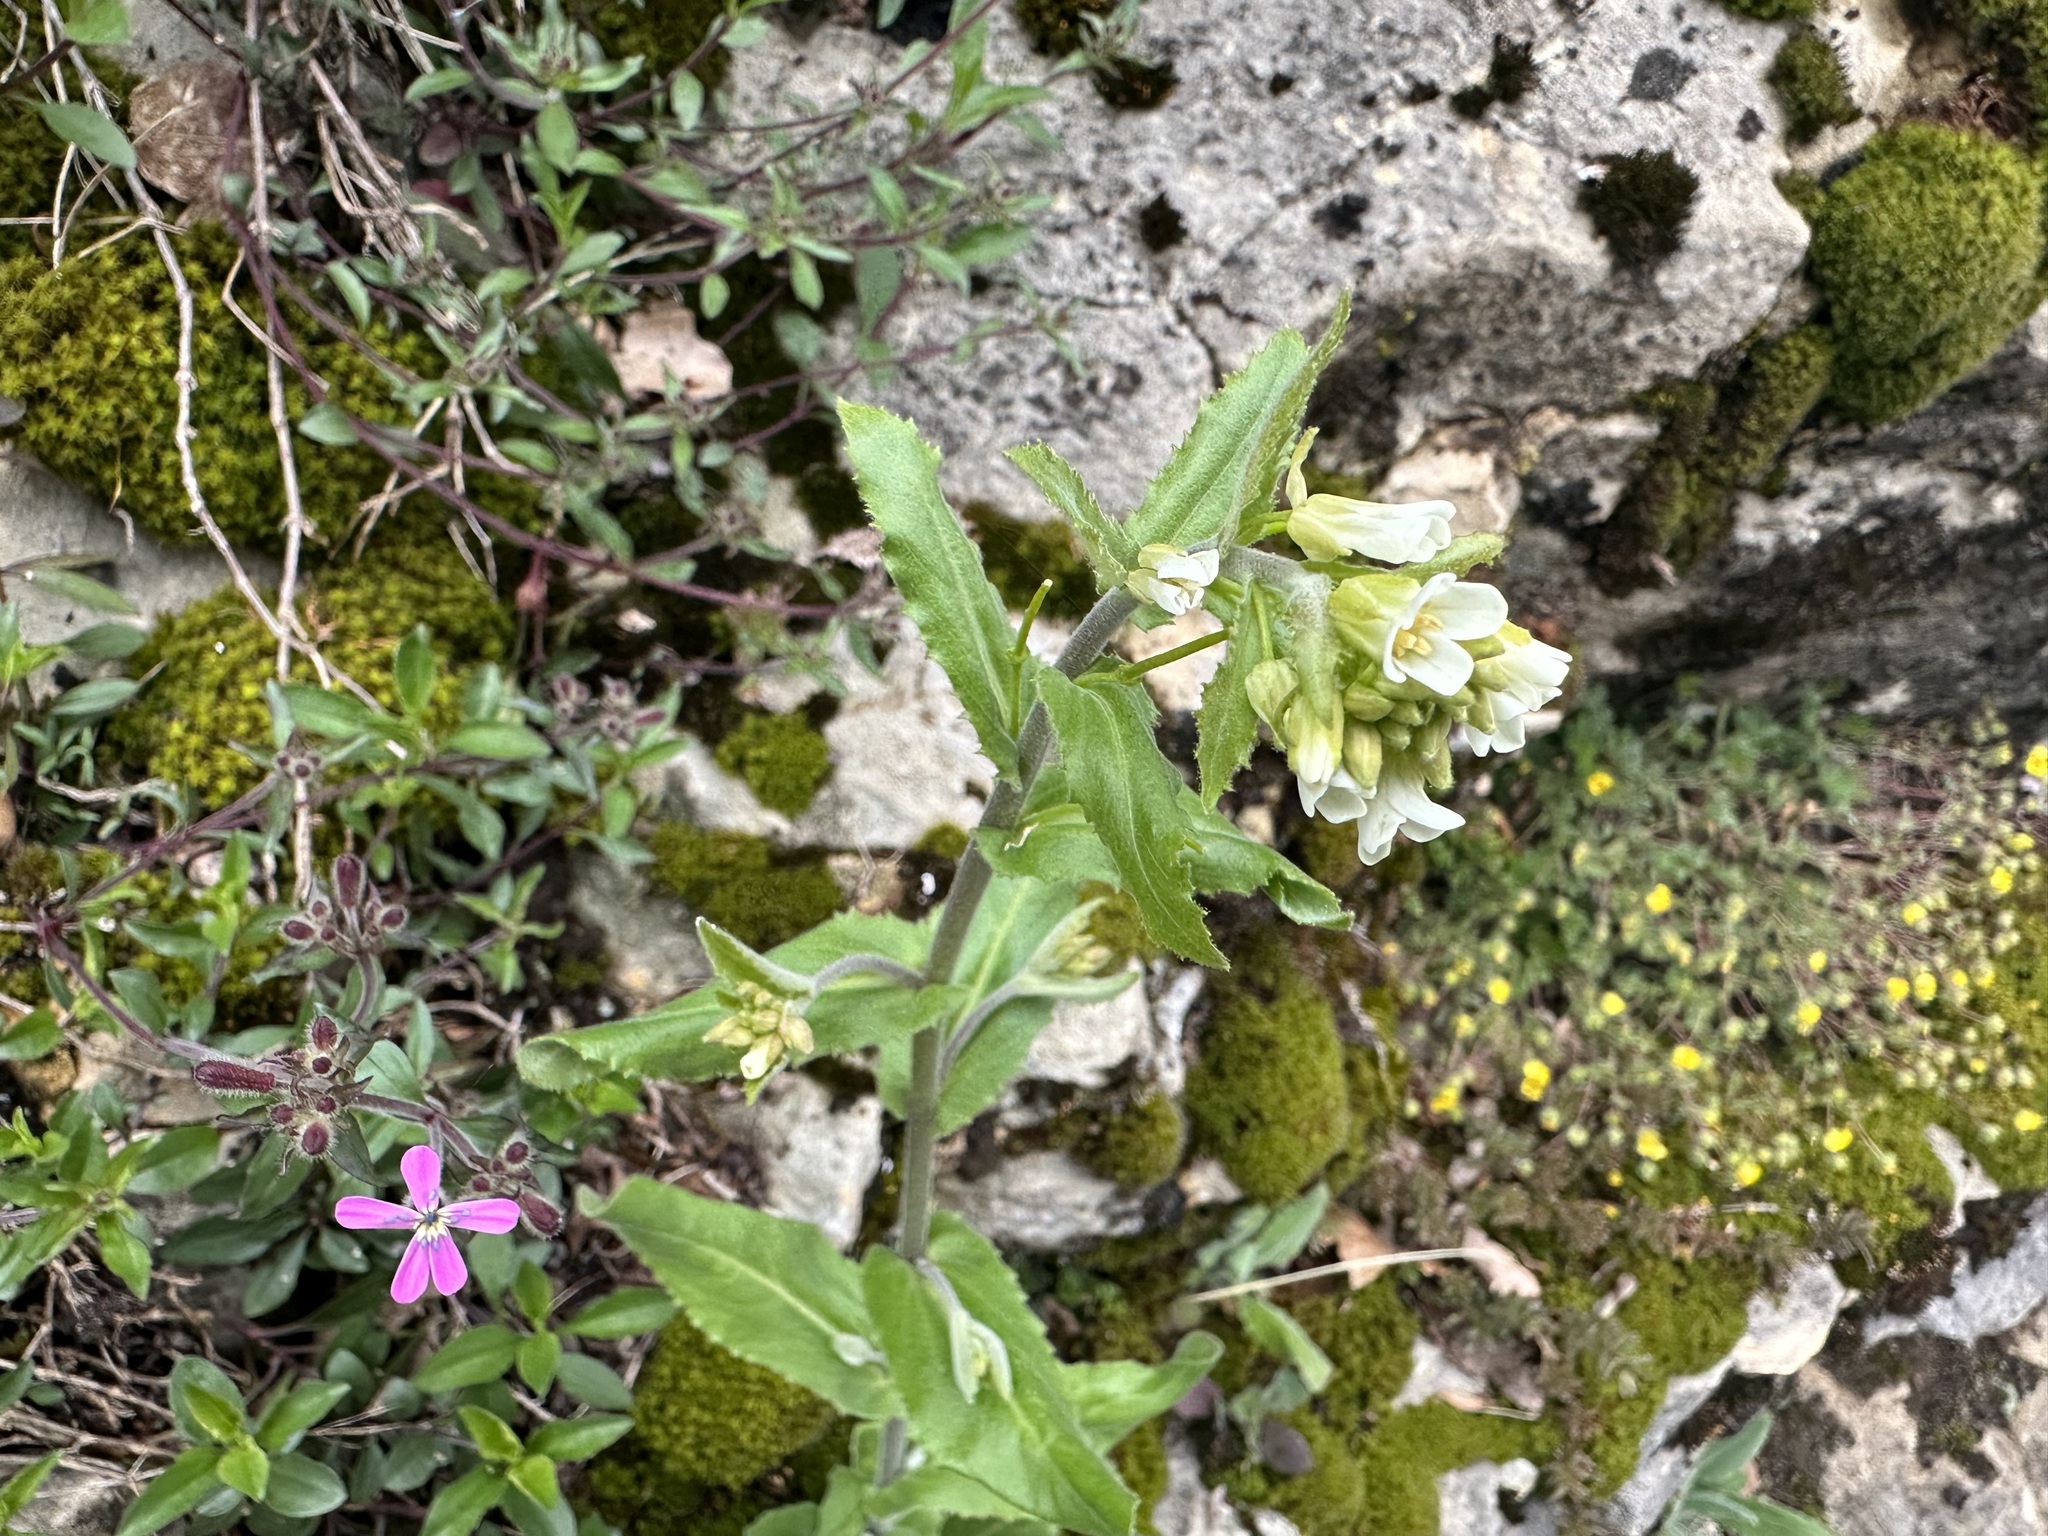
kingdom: Plantae
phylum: Tracheophyta
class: Magnoliopsida
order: Brassicales
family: Brassicaceae
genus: Pseudoturritis
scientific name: Pseudoturritis turrita
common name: Tower cress
